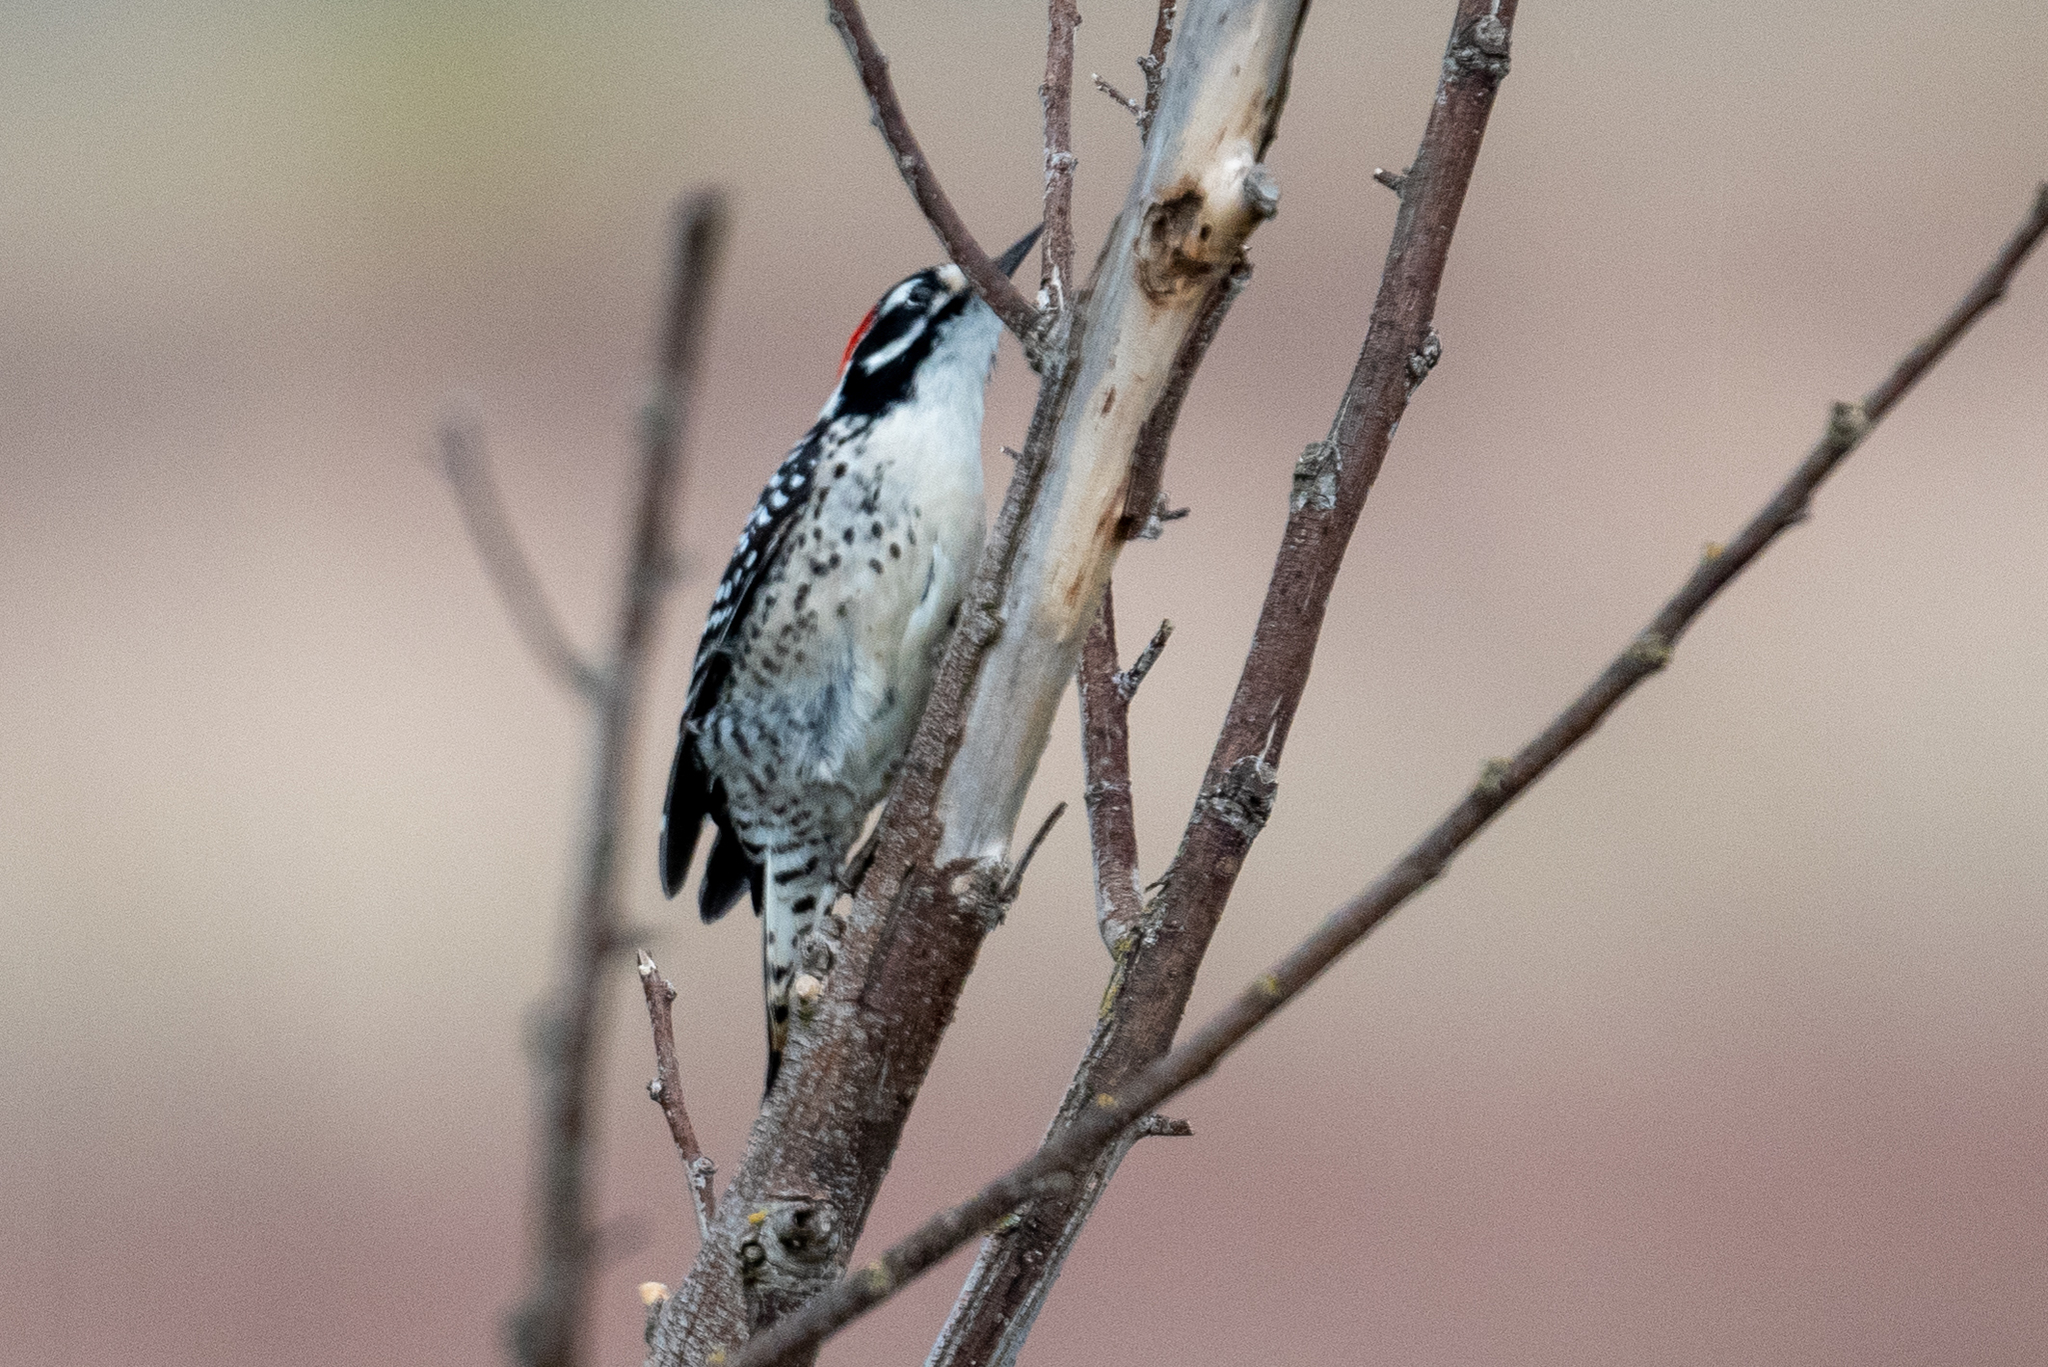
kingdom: Animalia
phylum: Chordata
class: Aves
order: Piciformes
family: Picidae
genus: Dryobates
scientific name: Dryobates nuttallii
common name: Nuttall's woodpecker
